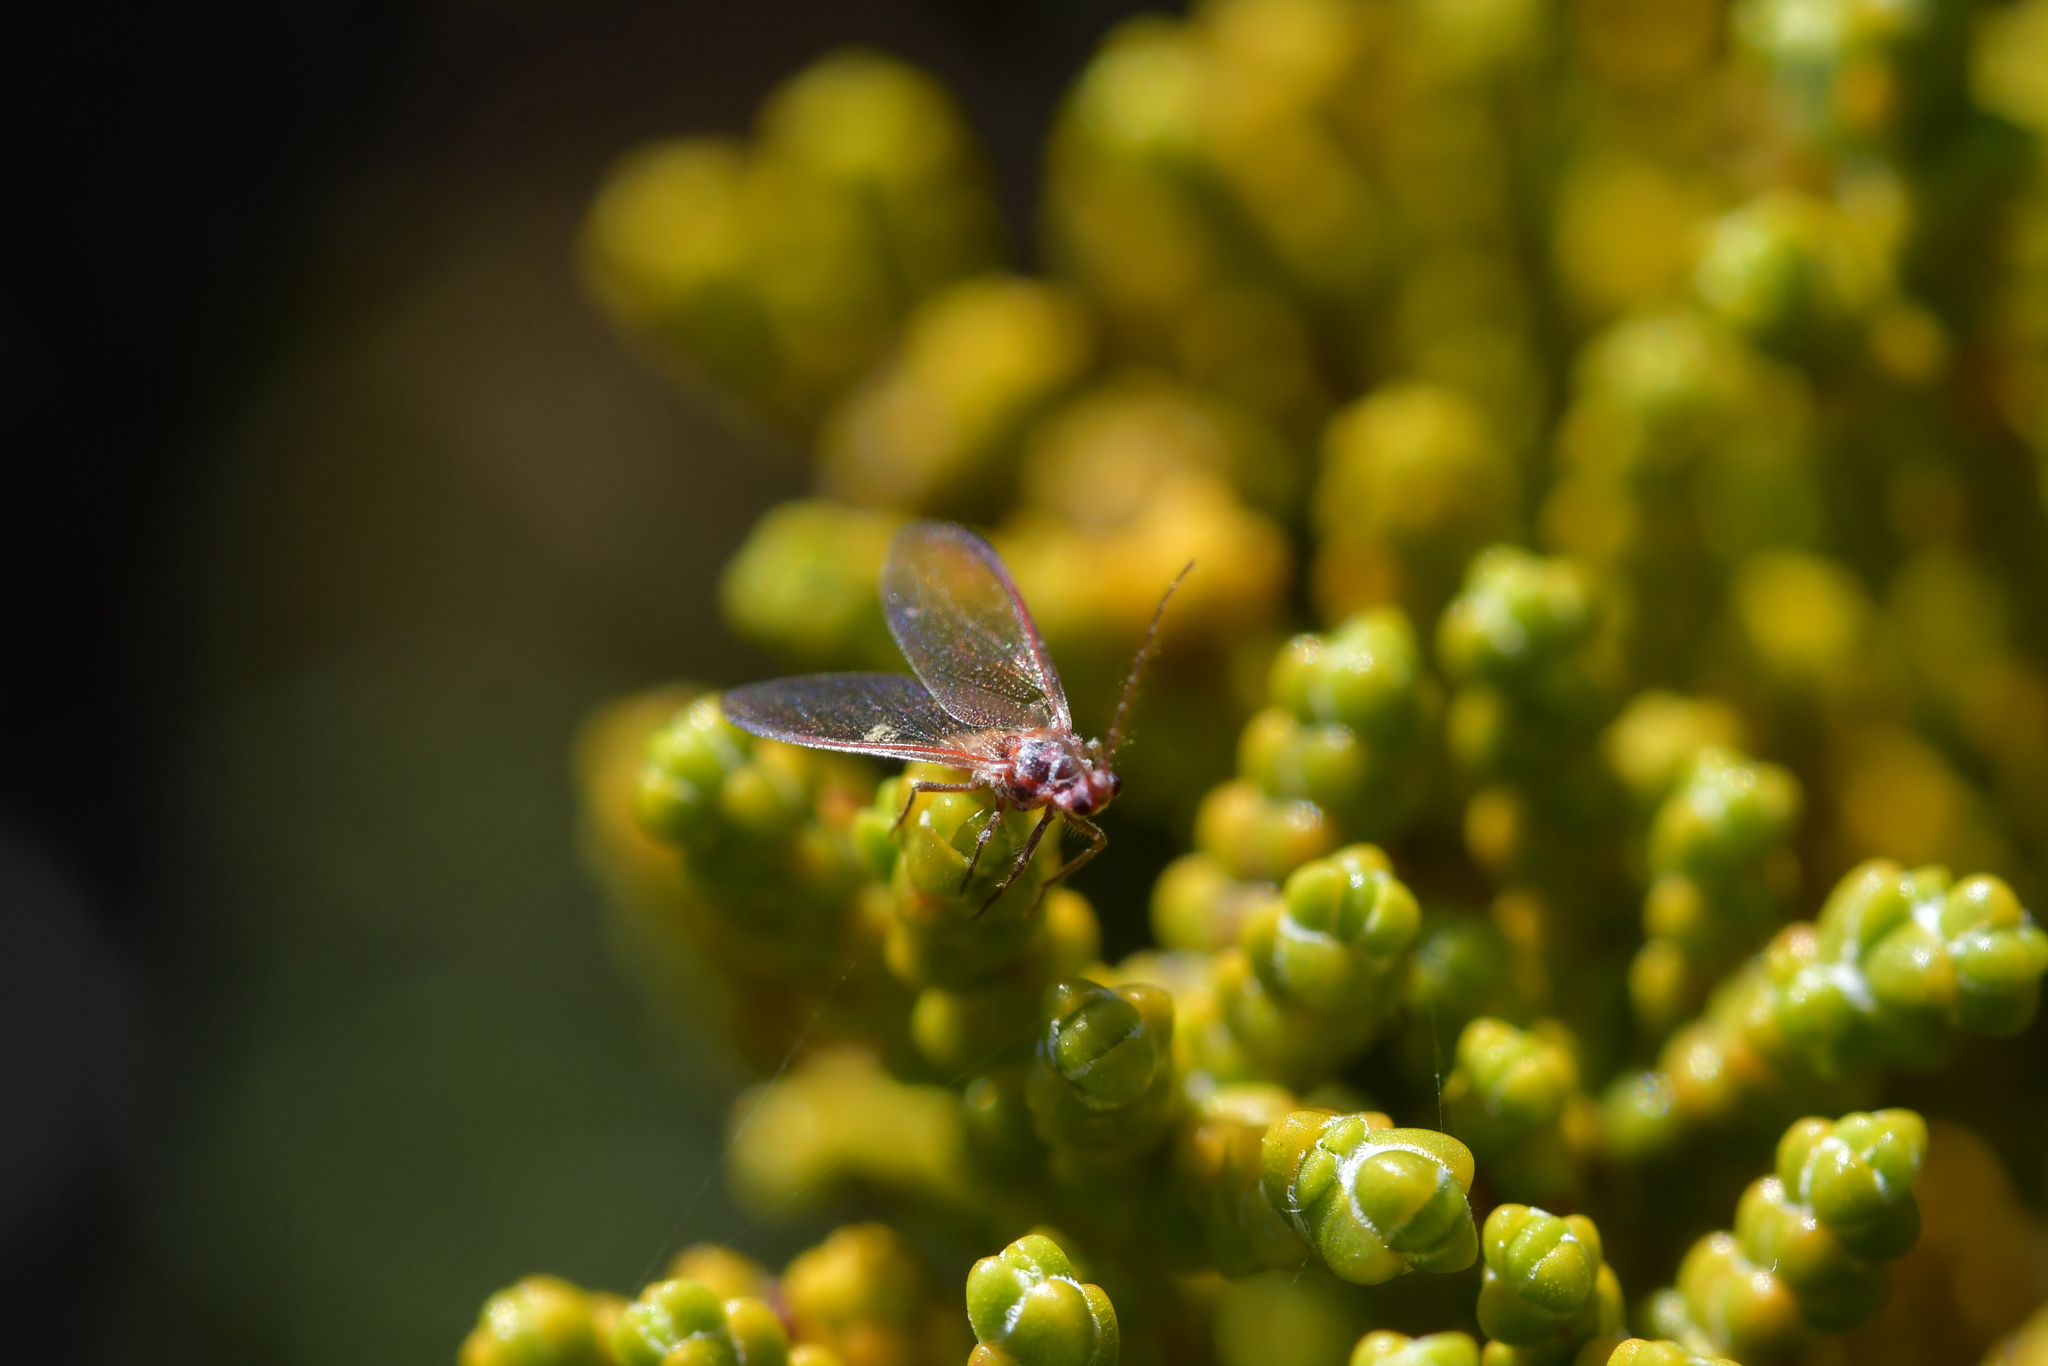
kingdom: Animalia
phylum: Arthropoda
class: Insecta
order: Hemiptera
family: Margarodidae
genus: Coelostomidia
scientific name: Coelostomidia zealandica
